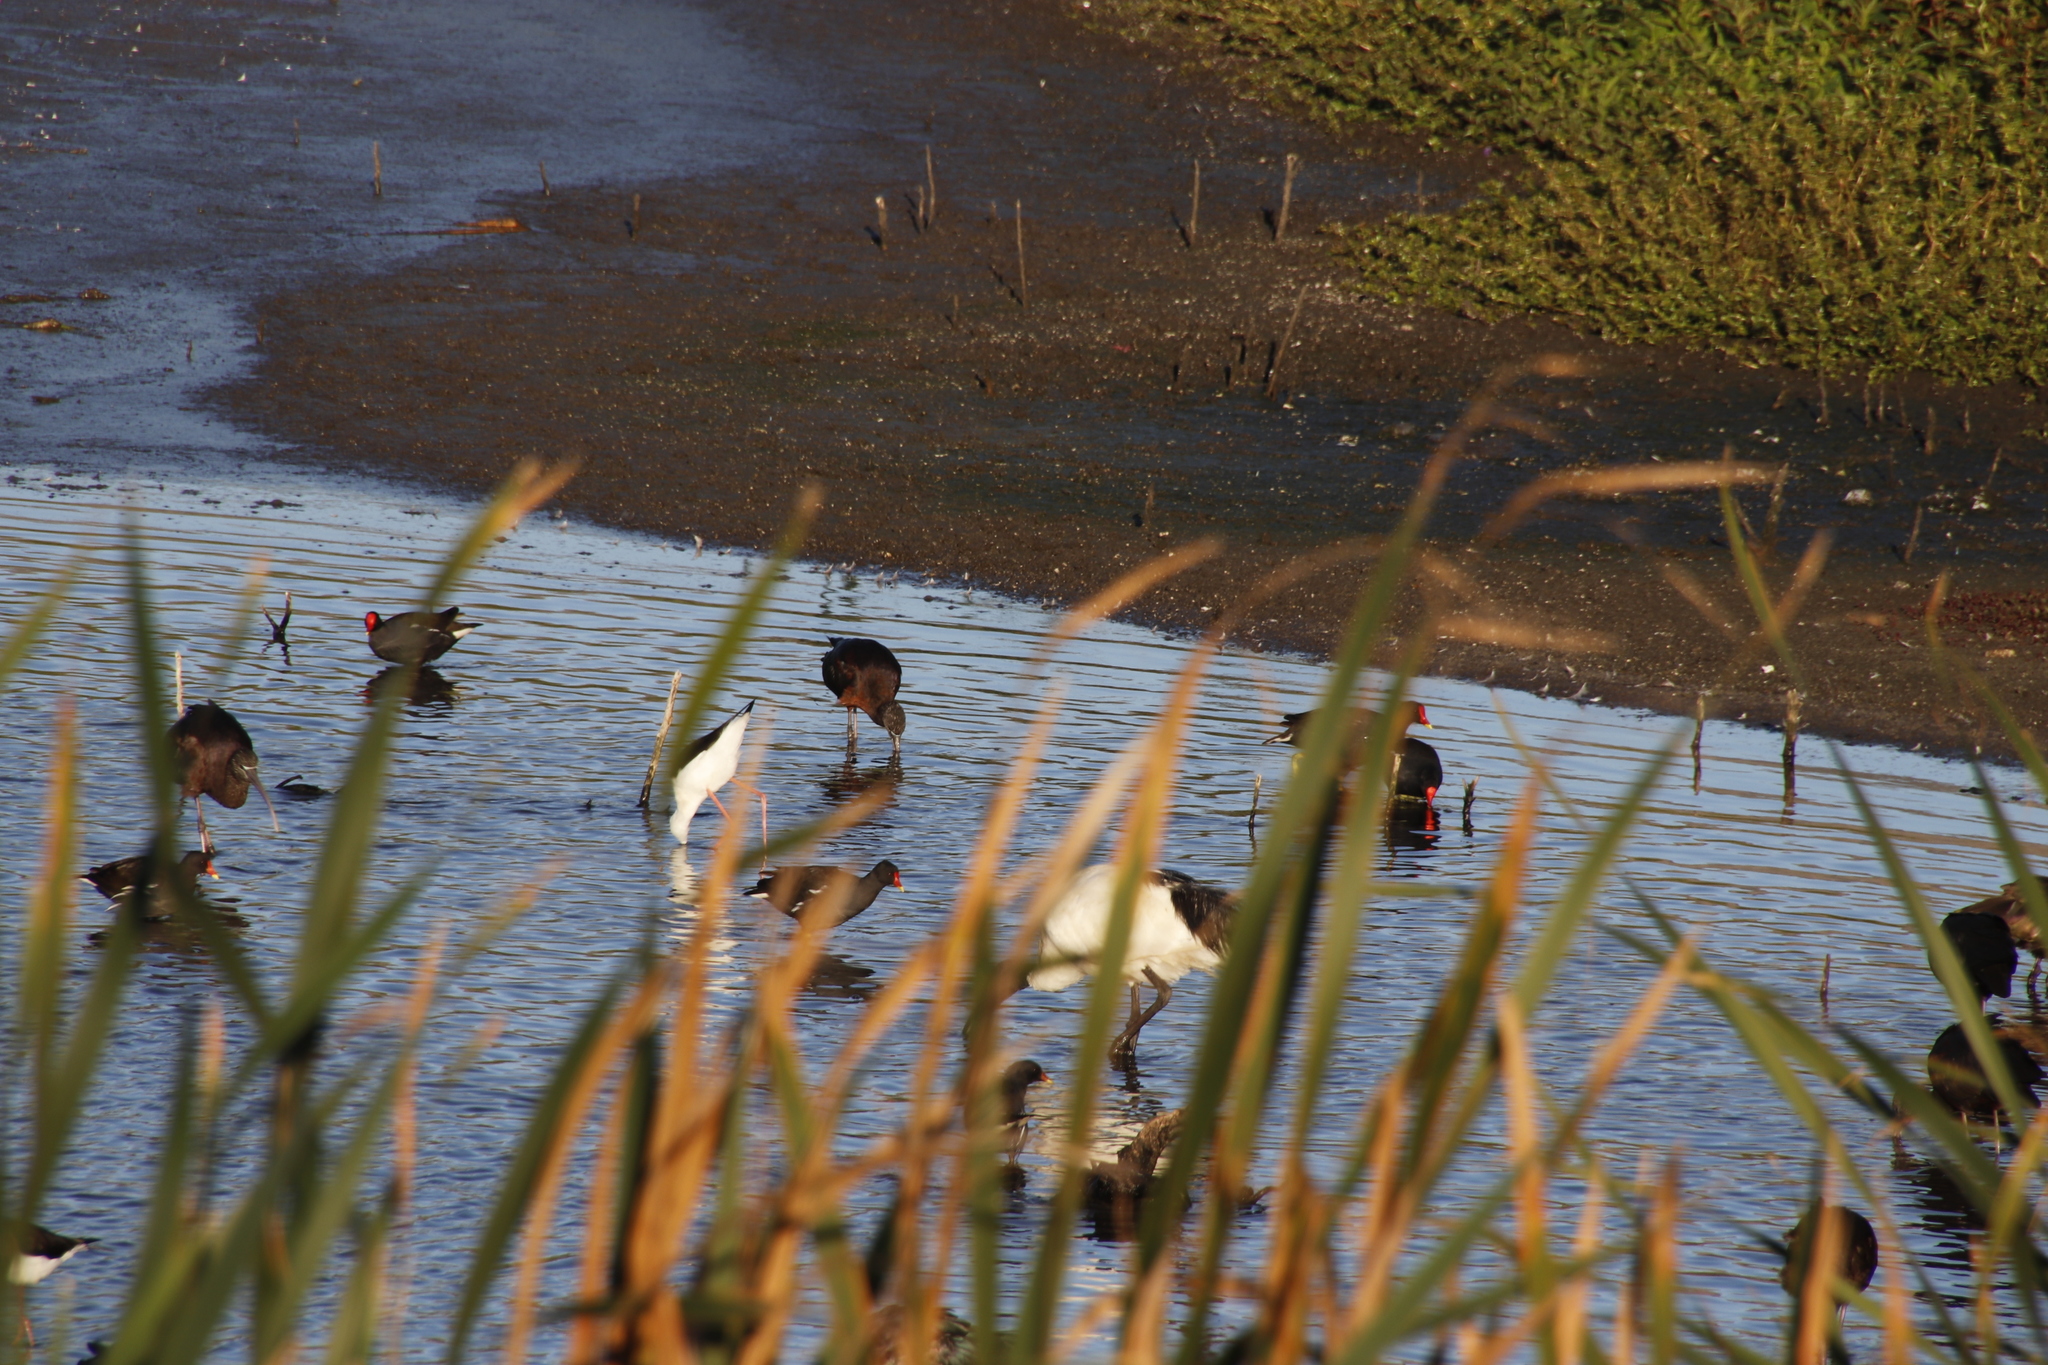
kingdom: Animalia
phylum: Chordata
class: Aves
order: Pelecaniformes
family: Threskiornithidae
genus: Plegadis
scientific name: Plegadis falcinellus
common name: Glossy ibis
